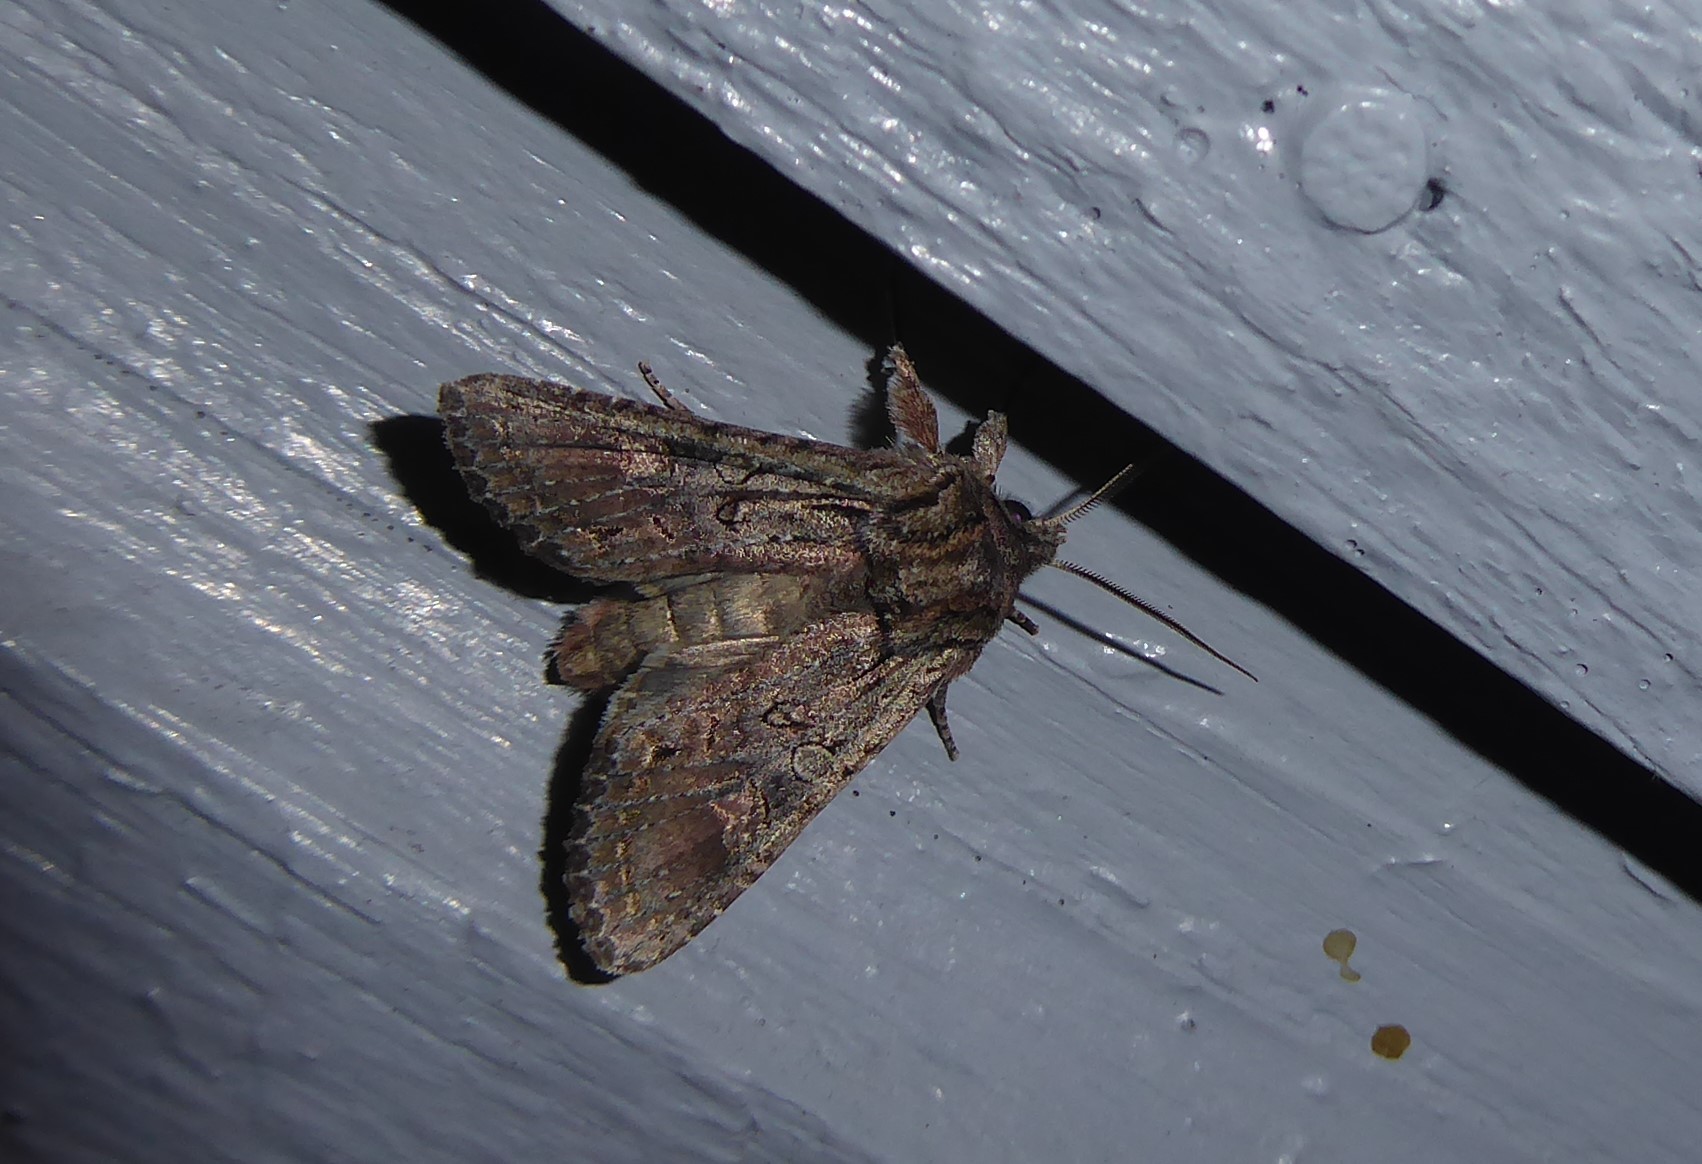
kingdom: Animalia
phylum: Arthropoda
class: Insecta
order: Lepidoptera
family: Noctuidae
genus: Ichneutica
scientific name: Ichneutica mutans
